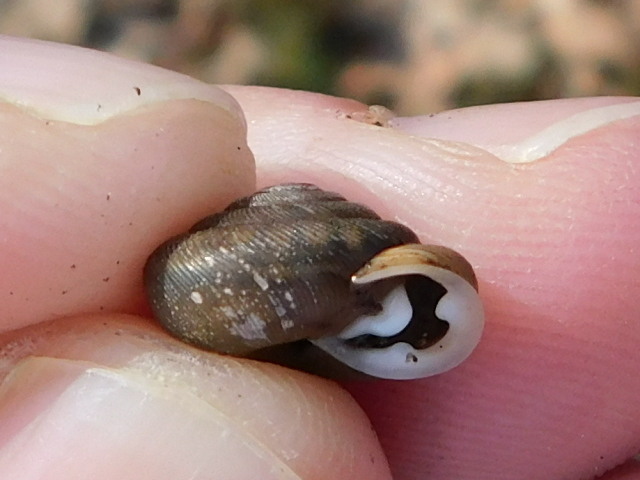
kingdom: Animalia
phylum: Mollusca
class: Gastropoda
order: Stylommatophora
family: Polygyridae
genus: Triodopsis
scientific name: Triodopsis hopetonensis
